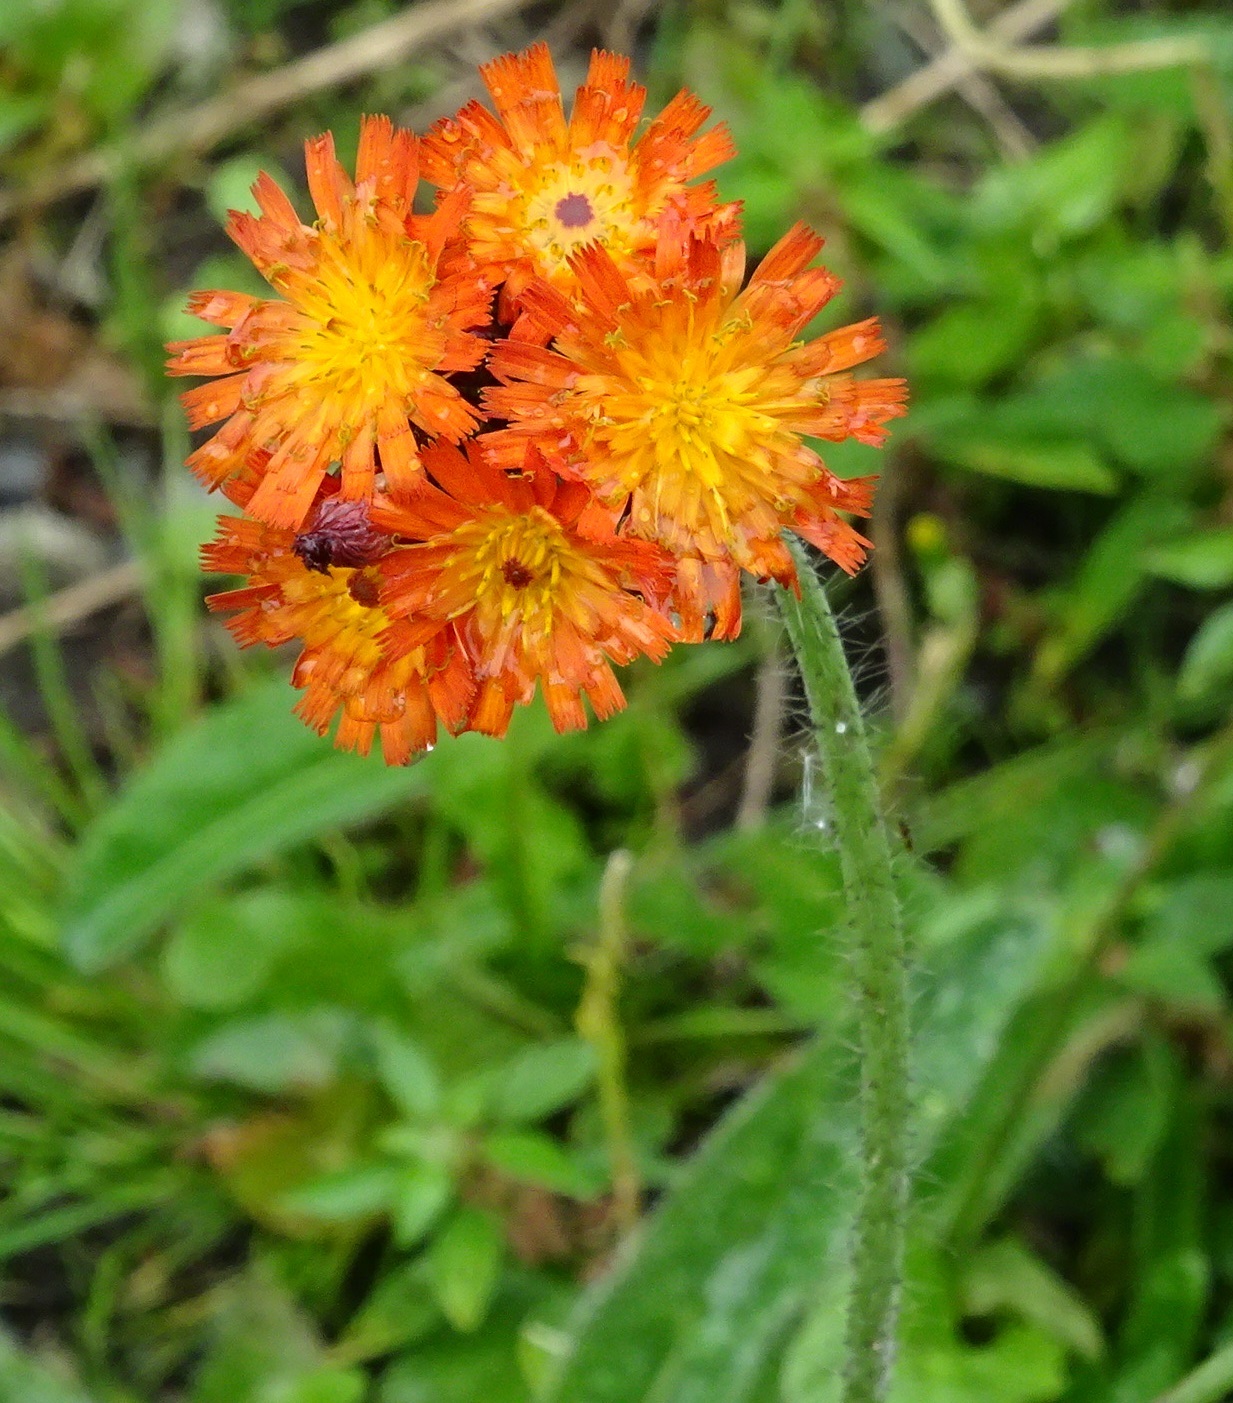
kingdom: Plantae
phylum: Tracheophyta
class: Magnoliopsida
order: Asterales
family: Asteraceae
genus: Pilosella
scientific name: Pilosella aurantiaca
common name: Fox-and-cubs
